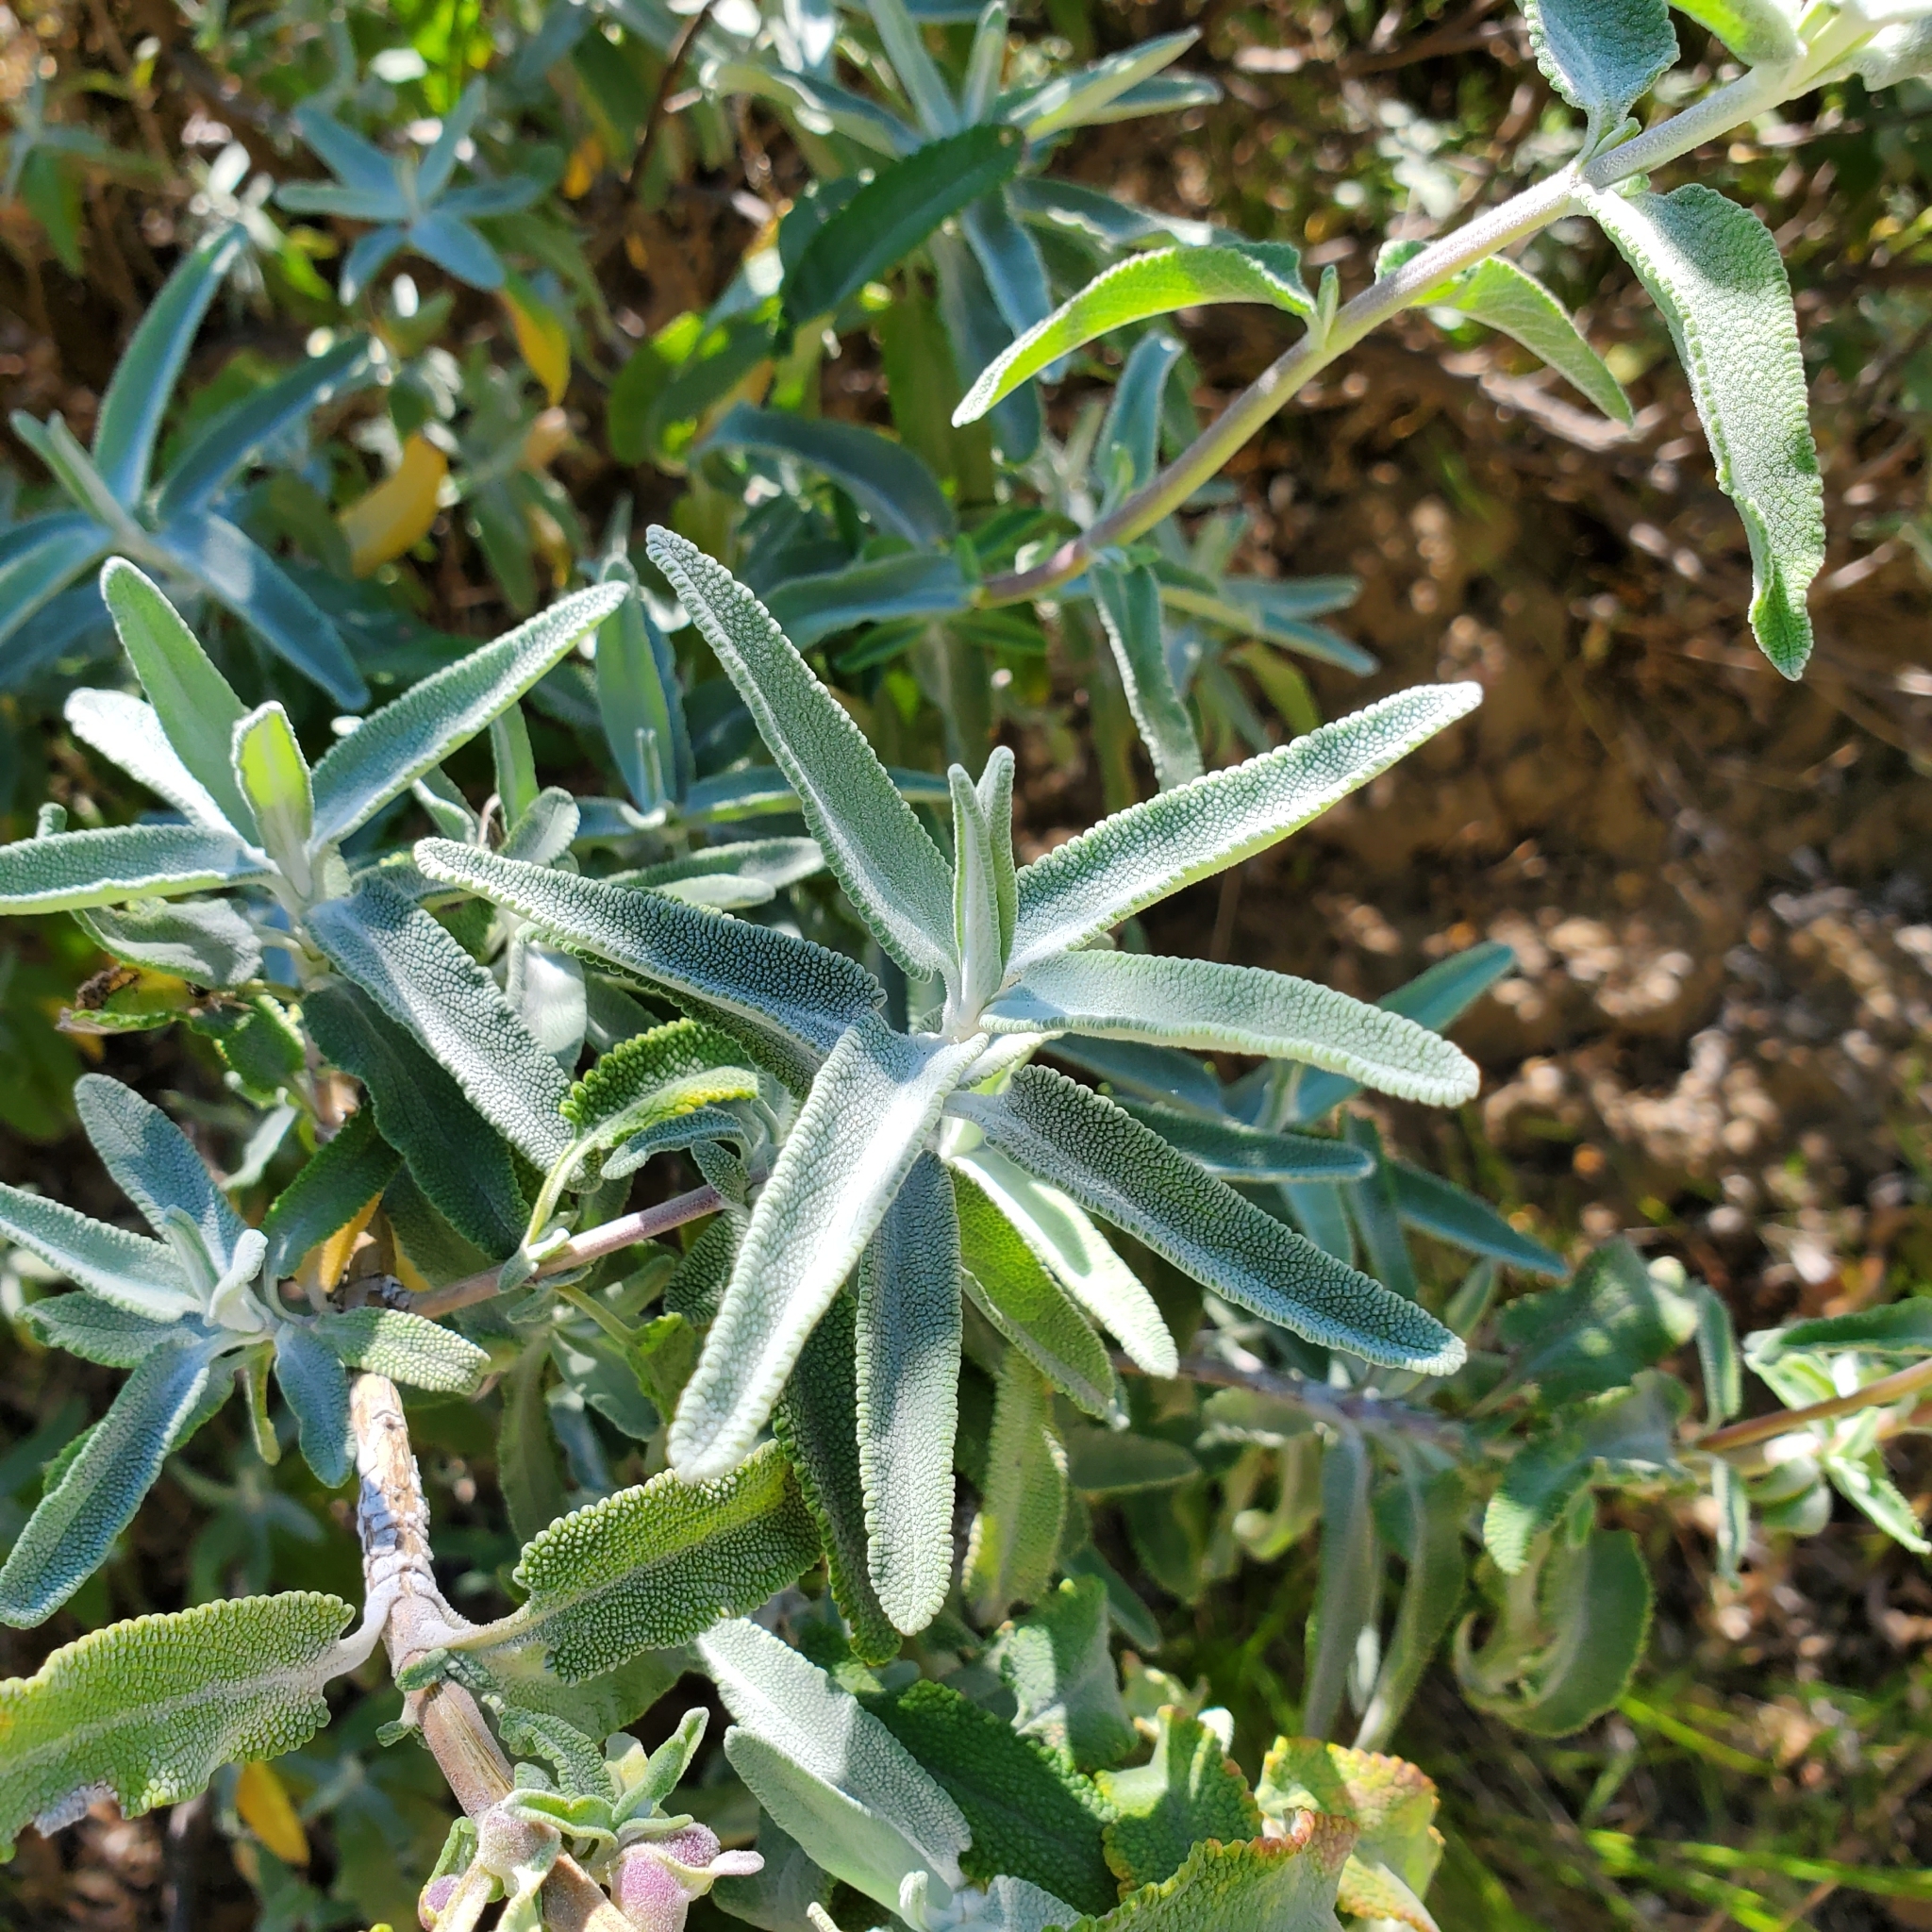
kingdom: Plantae
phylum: Tracheophyta
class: Magnoliopsida
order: Lamiales
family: Lamiaceae
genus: Salvia
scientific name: Salvia leucophylla
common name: Purple sage
